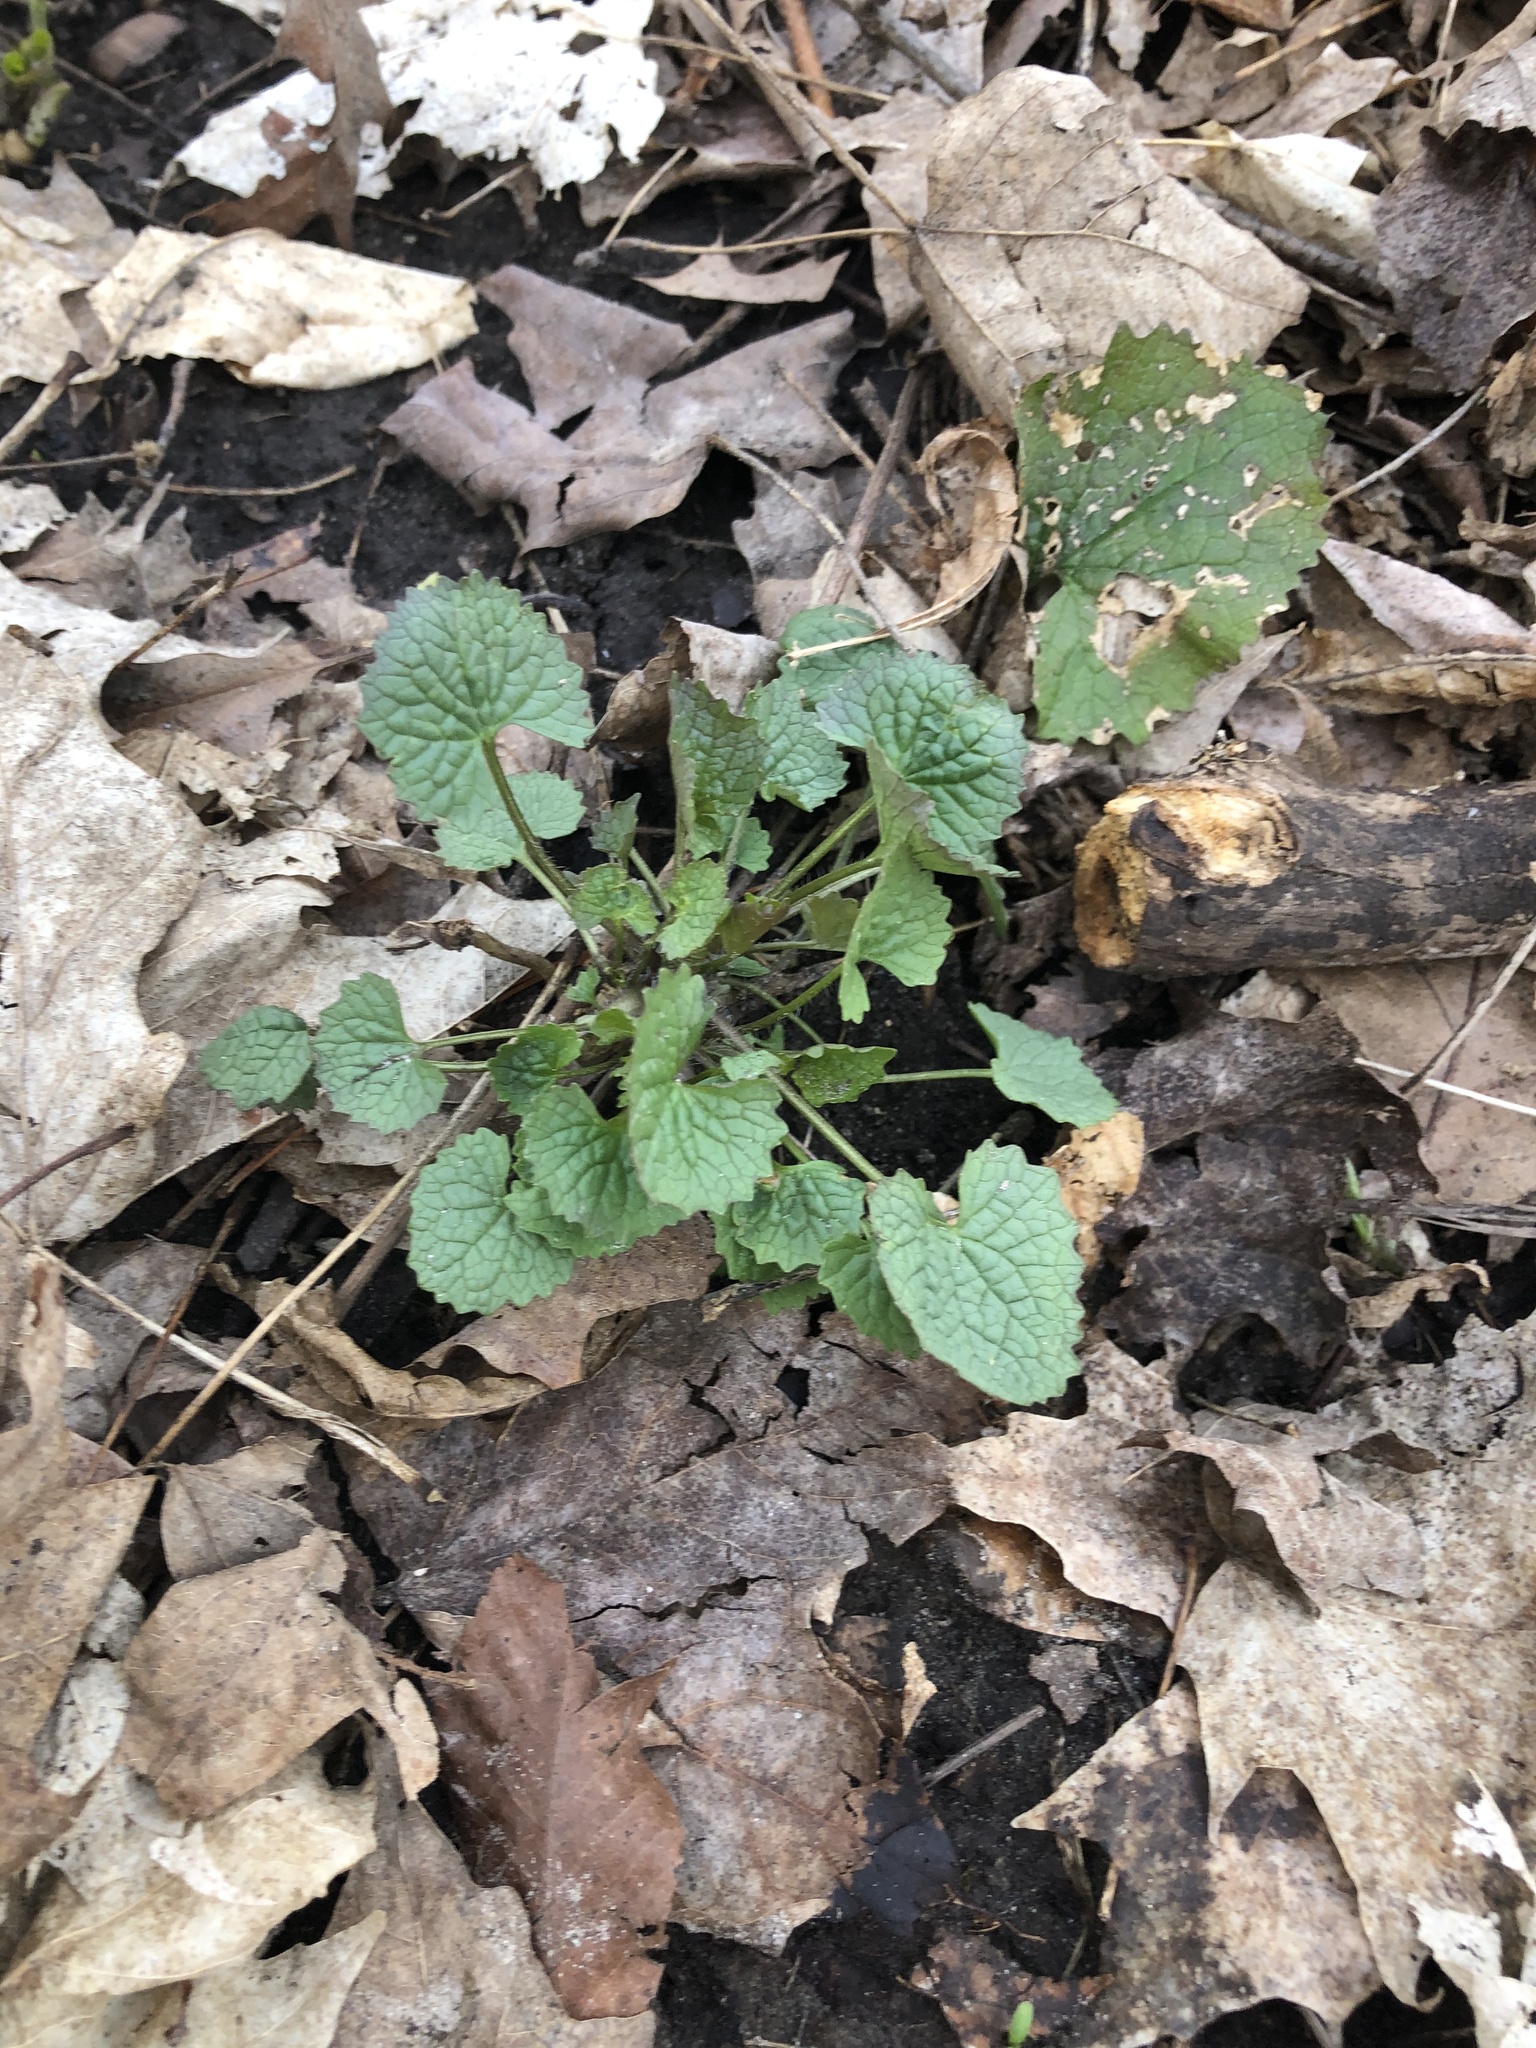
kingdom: Plantae
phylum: Tracheophyta
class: Magnoliopsida
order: Brassicales
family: Brassicaceae
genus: Alliaria
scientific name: Alliaria petiolata
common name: Garlic mustard
